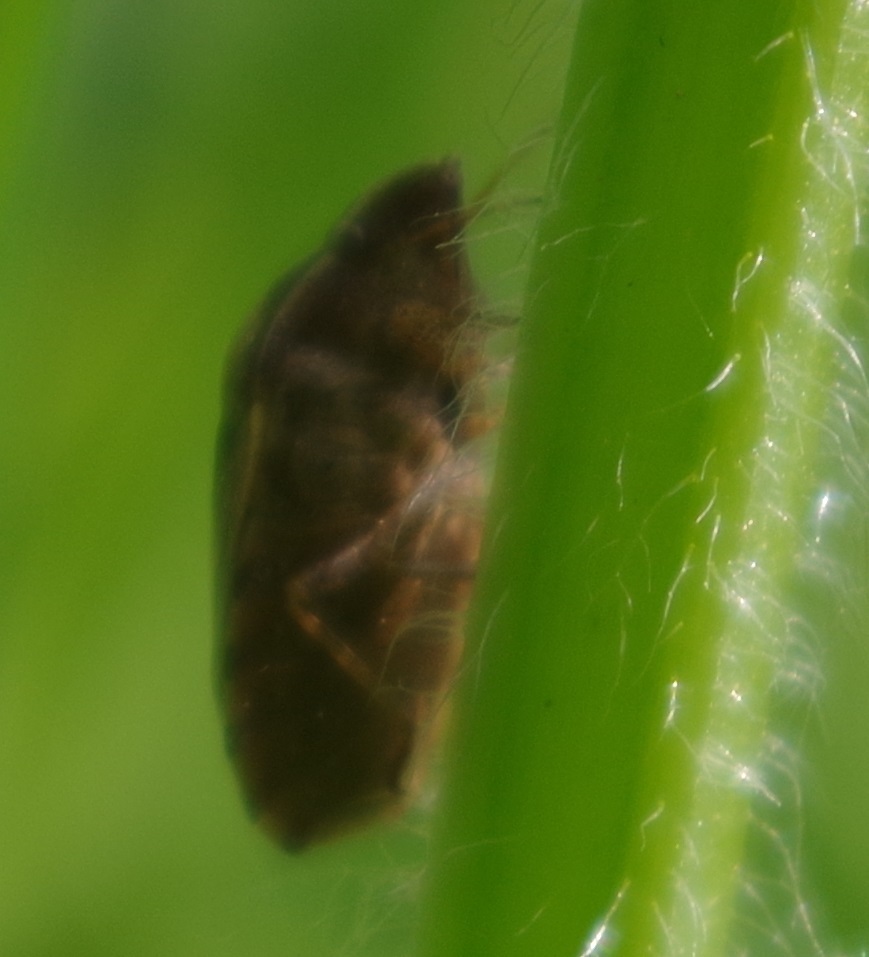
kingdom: Animalia
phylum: Arthropoda
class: Insecta
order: Hemiptera
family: Scutelleridae
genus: Eurygaster
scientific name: Eurygaster testudinaria
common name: Tortoise bug
